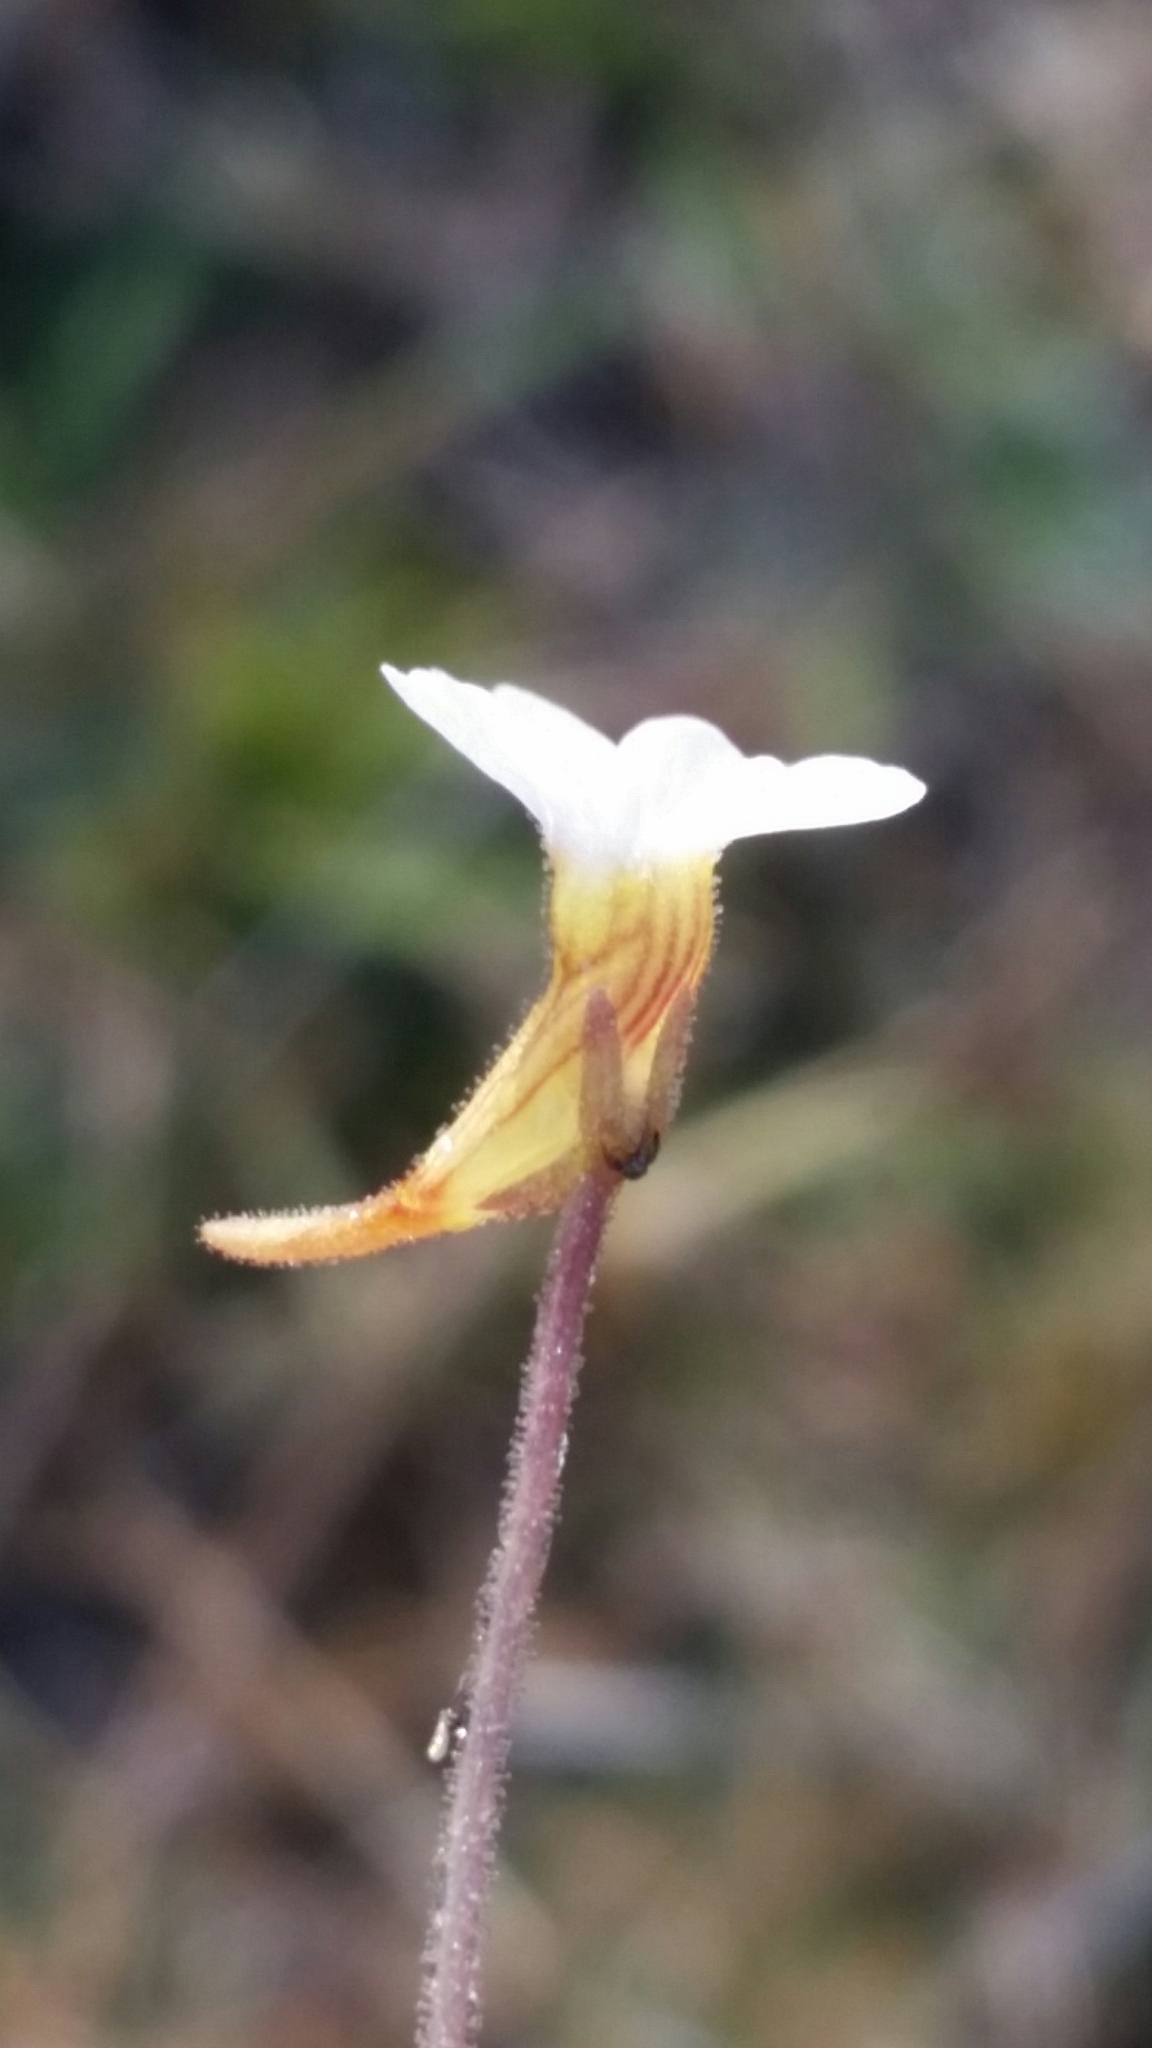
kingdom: Plantae
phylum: Tracheophyta
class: Magnoliopsida
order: Lamiales
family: Lentibulariaceae
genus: Pinguicula
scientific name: Pinguicula pumila
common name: Small butterwort
